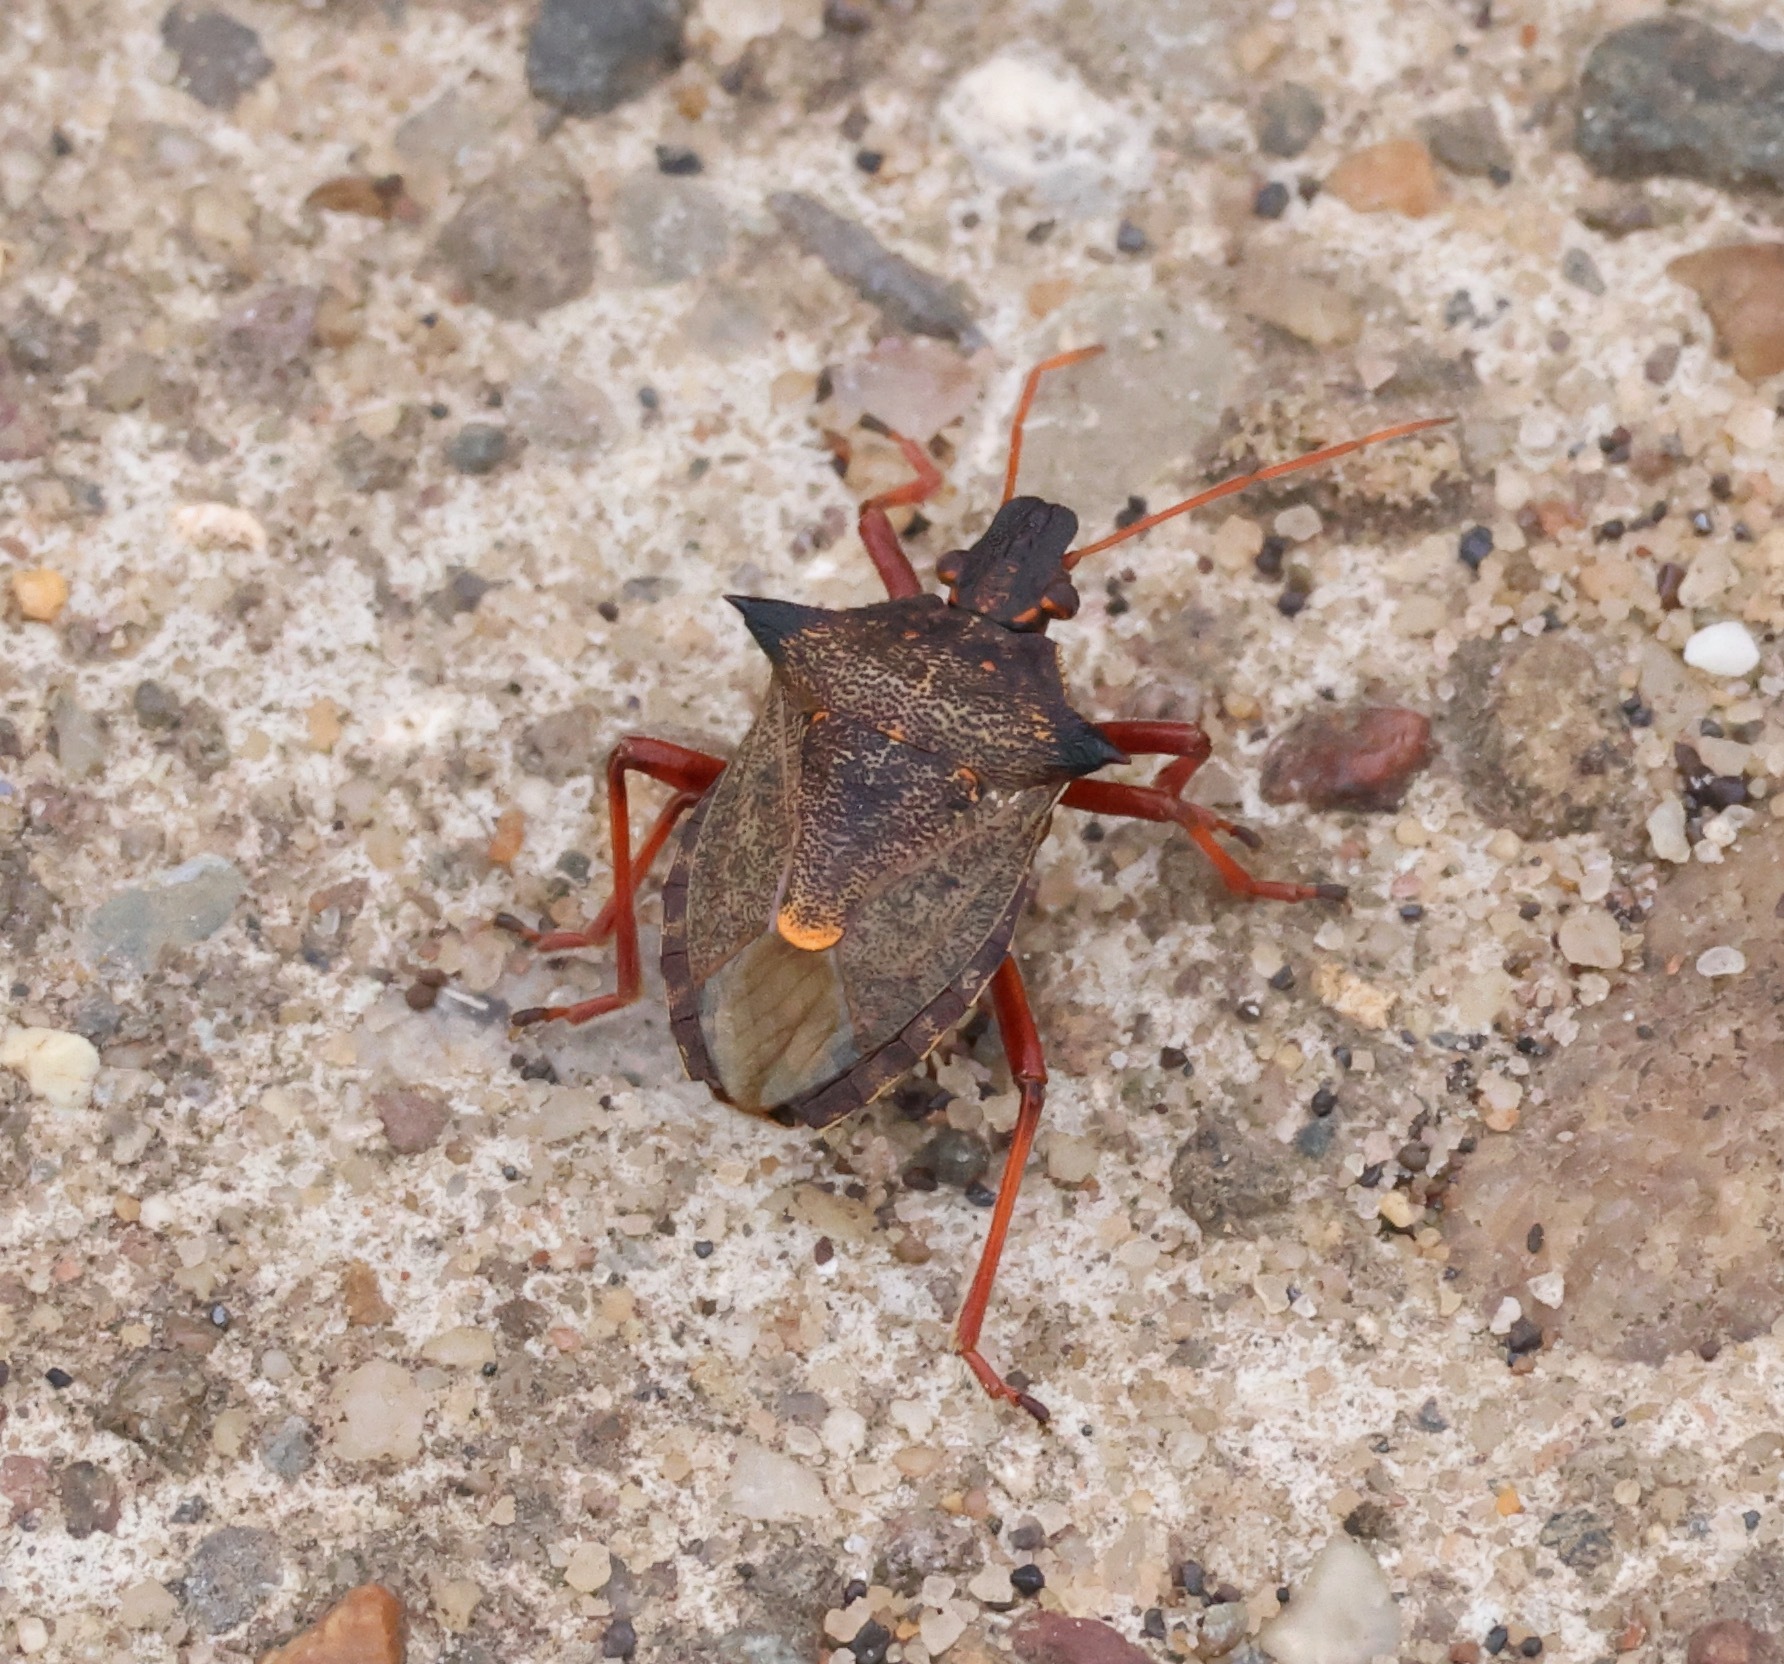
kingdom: Animalia
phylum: Arthropoda
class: Insecta
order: Hemiptera
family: Pentatomidae
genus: Picromerus
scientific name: Picromerus bidens
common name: Spiked shieldbug
